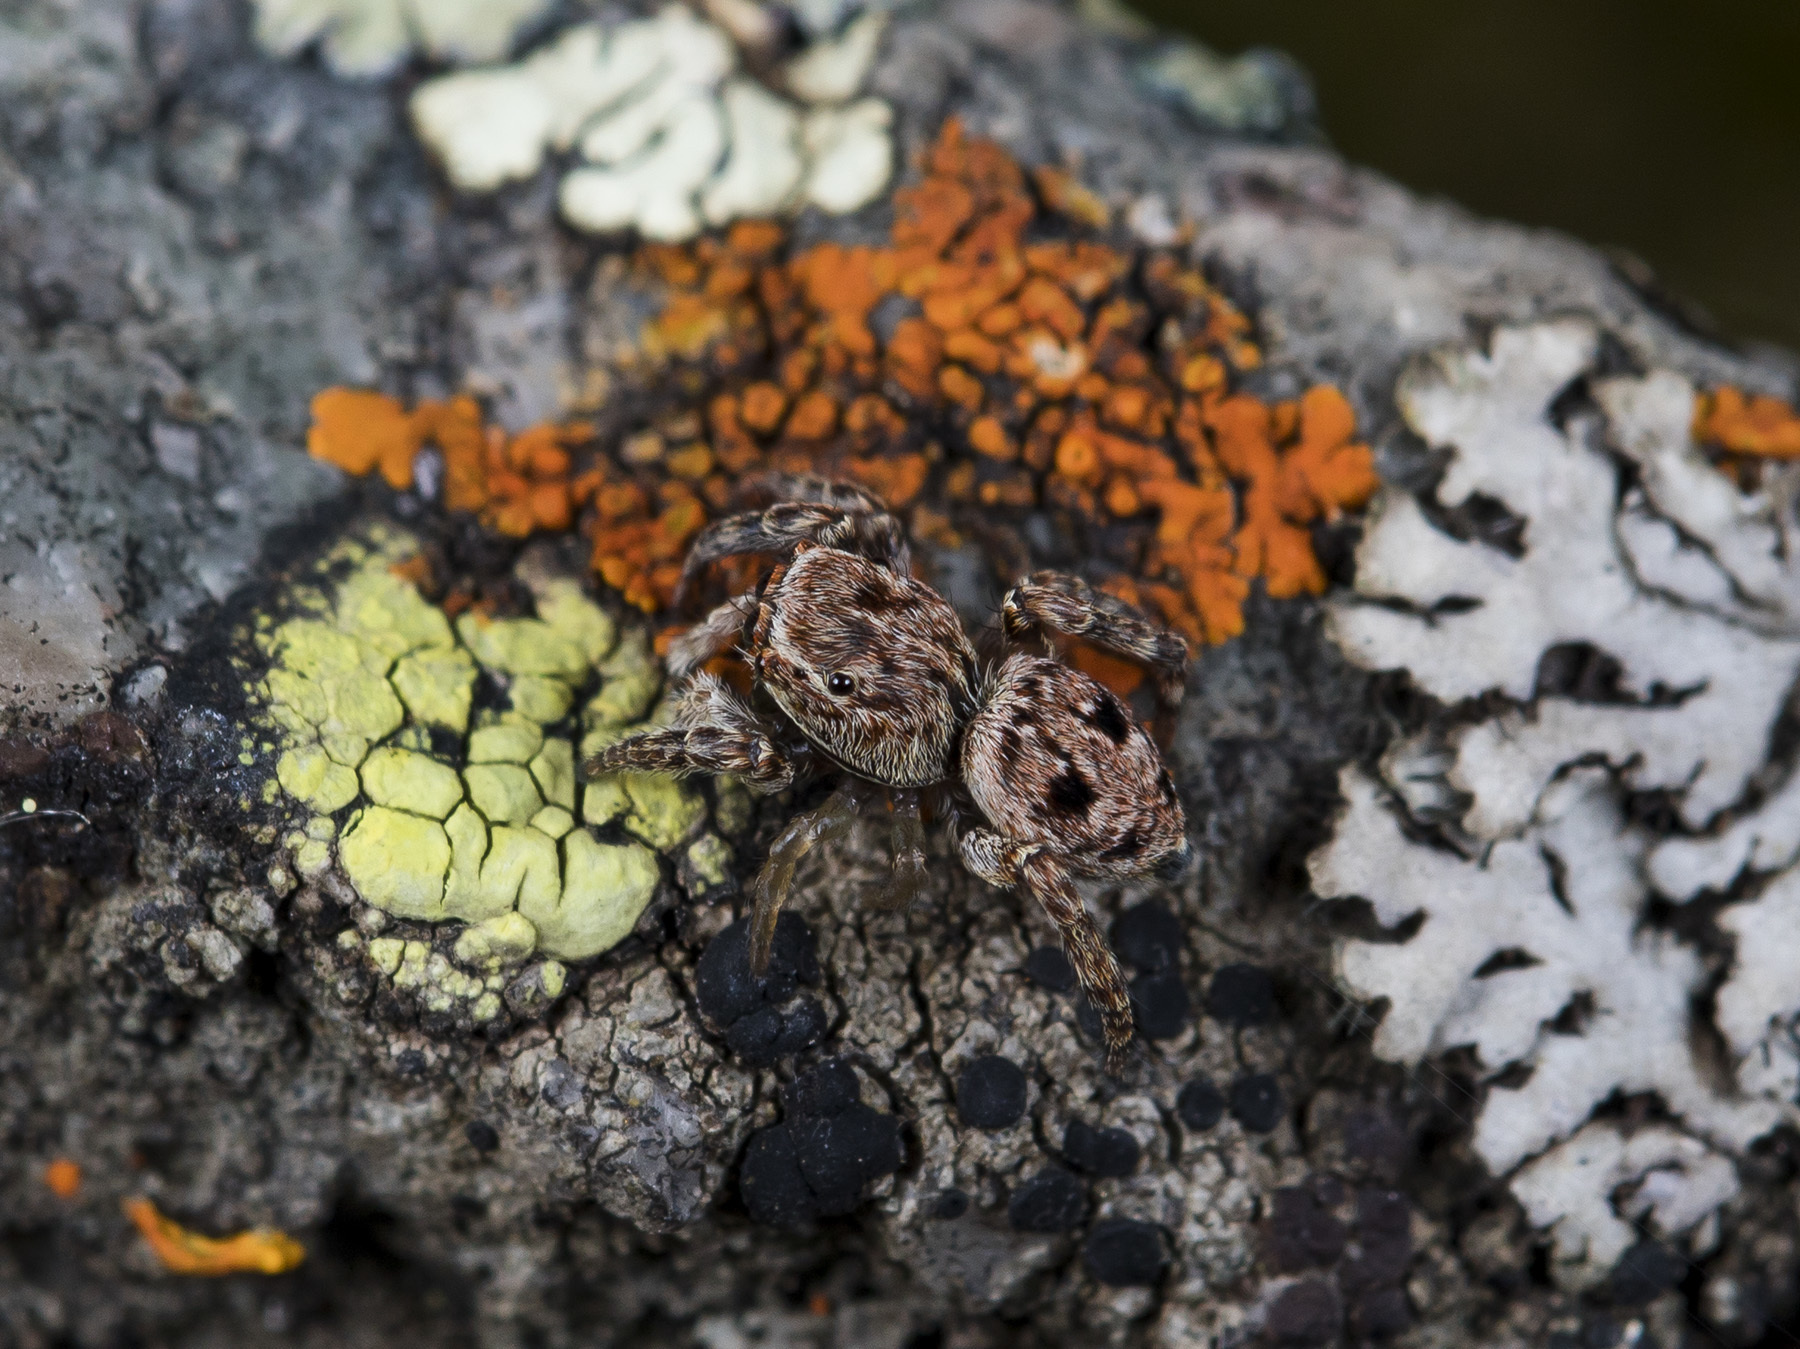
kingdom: Animalia
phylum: Arthropoda
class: Arachnida
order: Araneae
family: Salticidae
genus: Attulus
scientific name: Attulus monstrabilis
